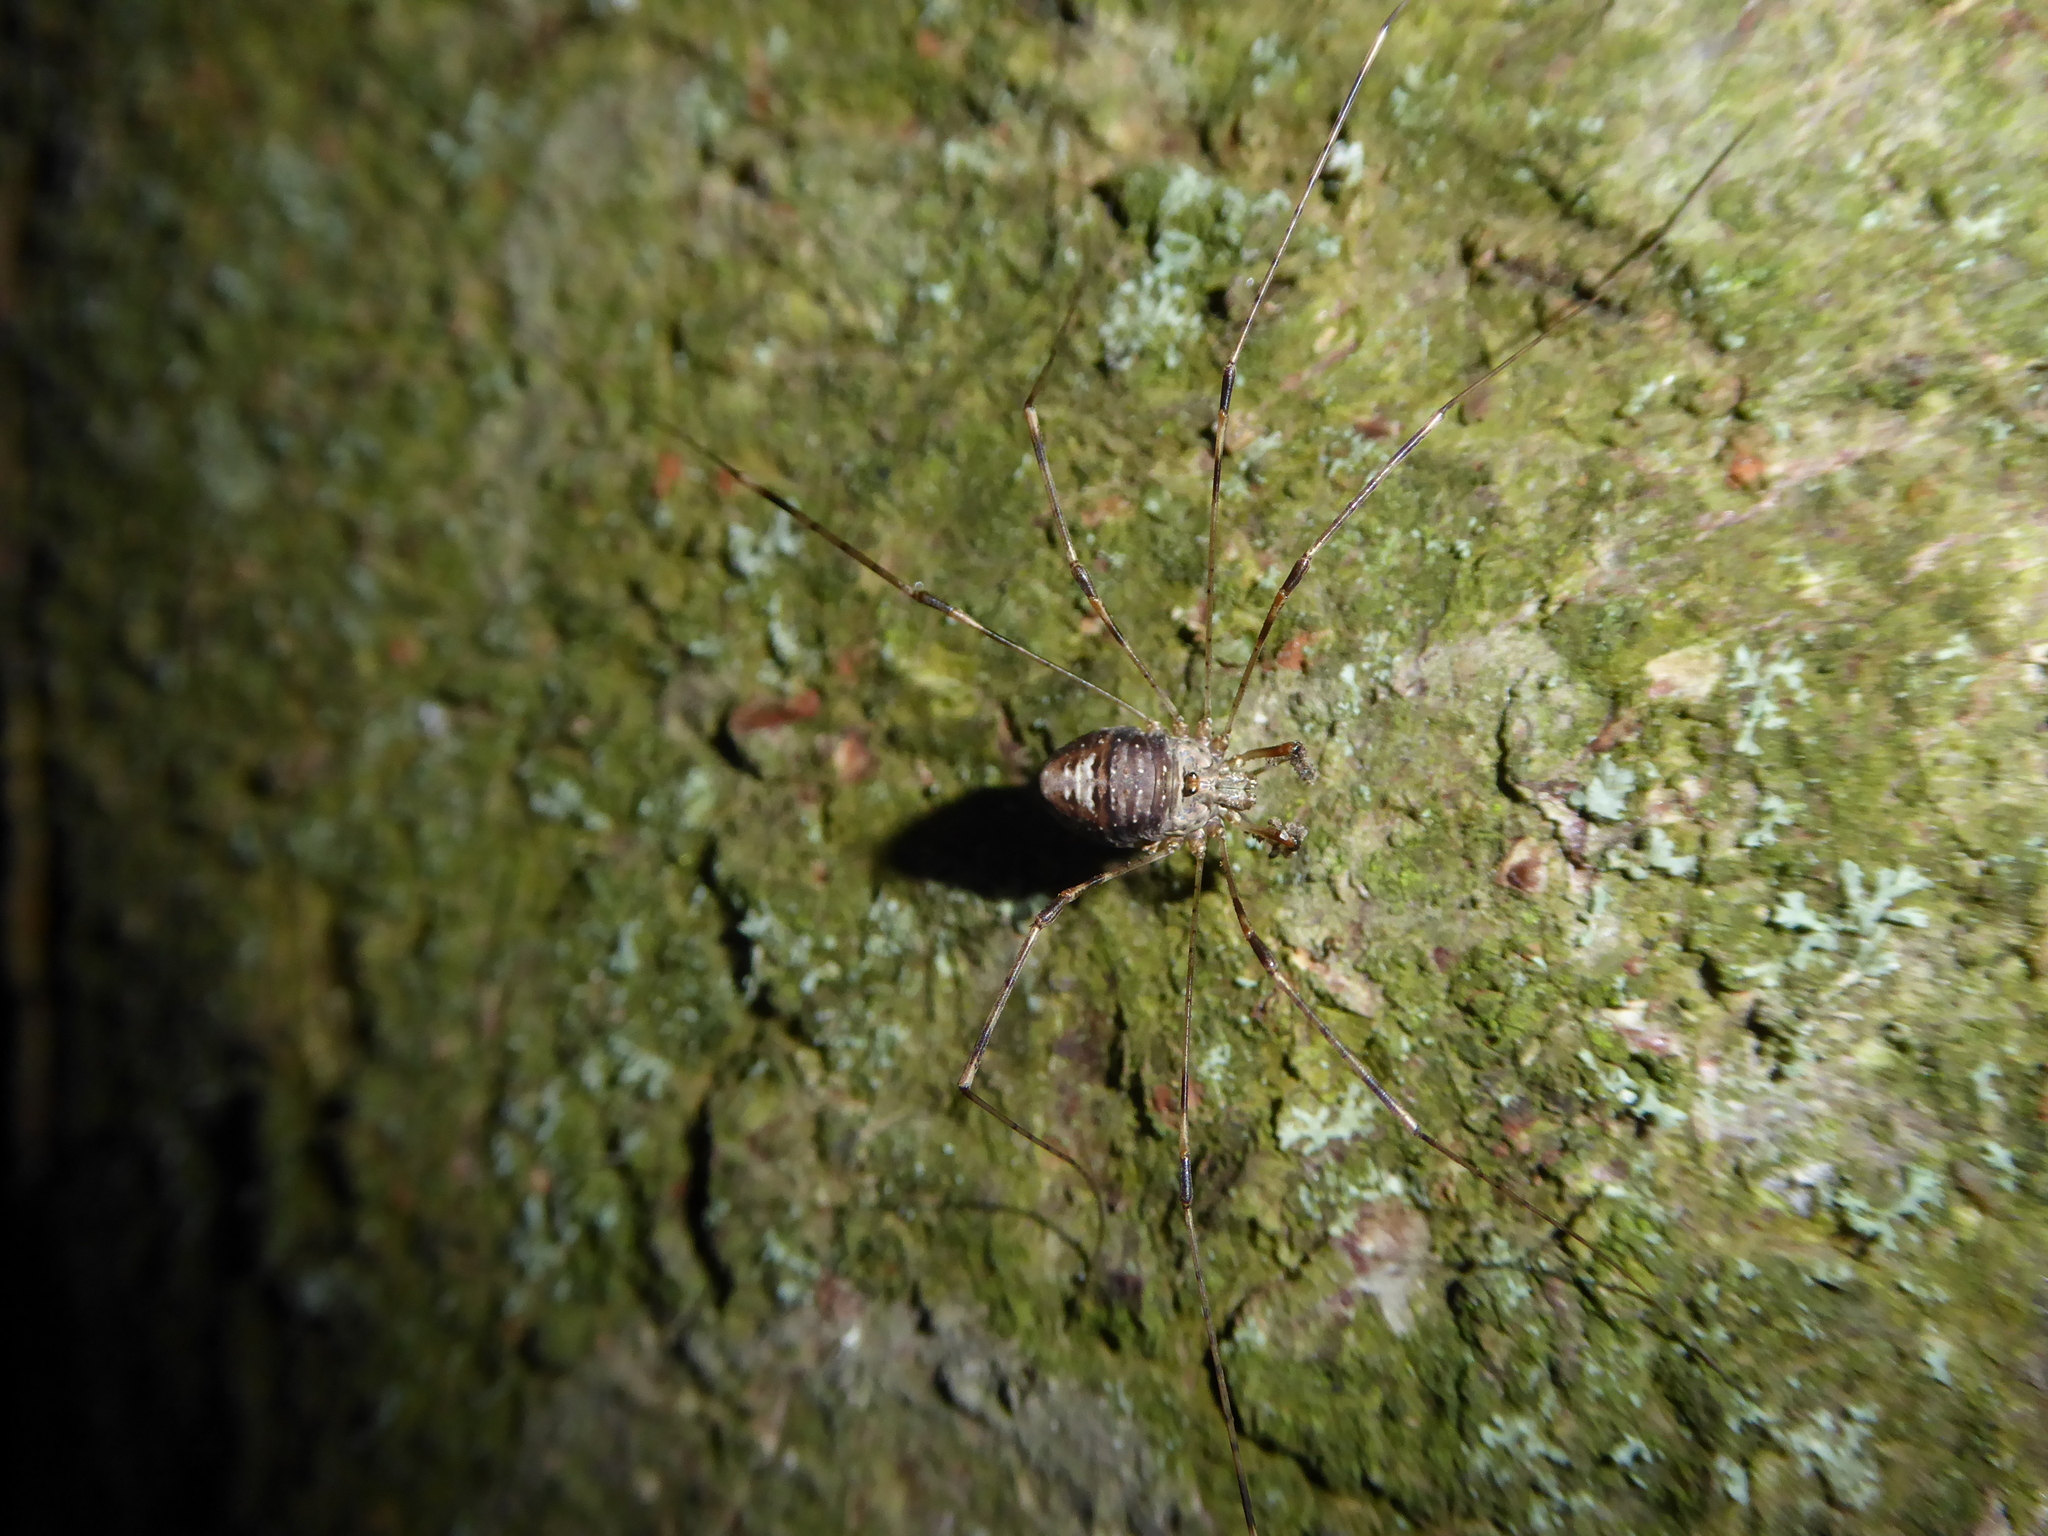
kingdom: Animalia
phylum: Arthropoda
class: Arachnida
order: Opiliones
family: Phalangiidae
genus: Dicranopalpus
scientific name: Dicranopalpus
